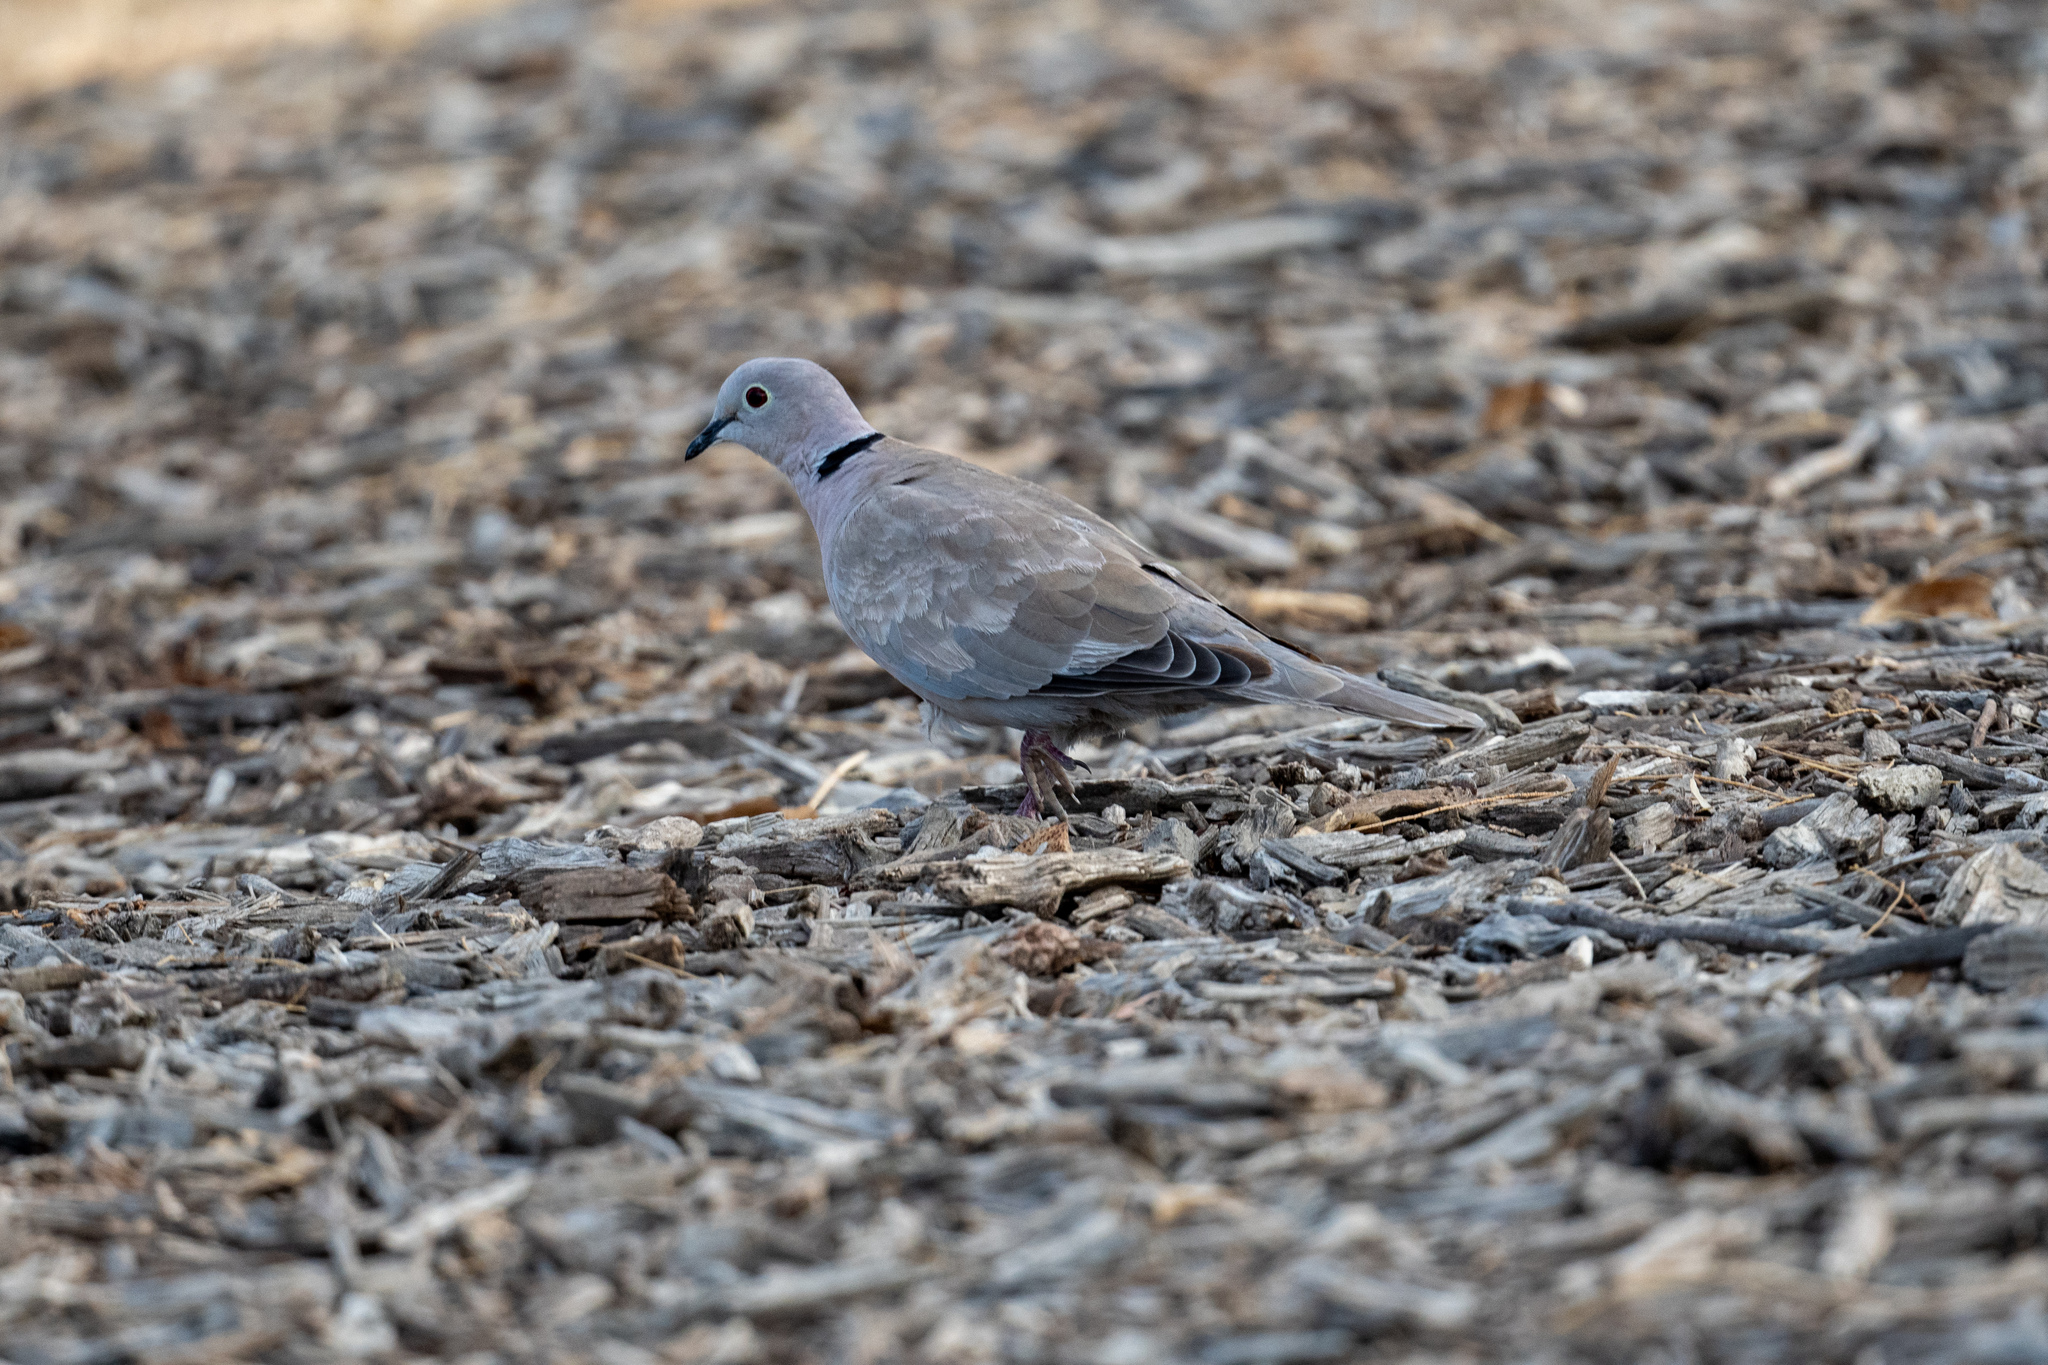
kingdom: Animalia
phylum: Chordata
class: Aves
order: Columbiformes
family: Columbidae
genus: Streptopelia
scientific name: Streptopelia decaocto
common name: Eurasian collared dove
